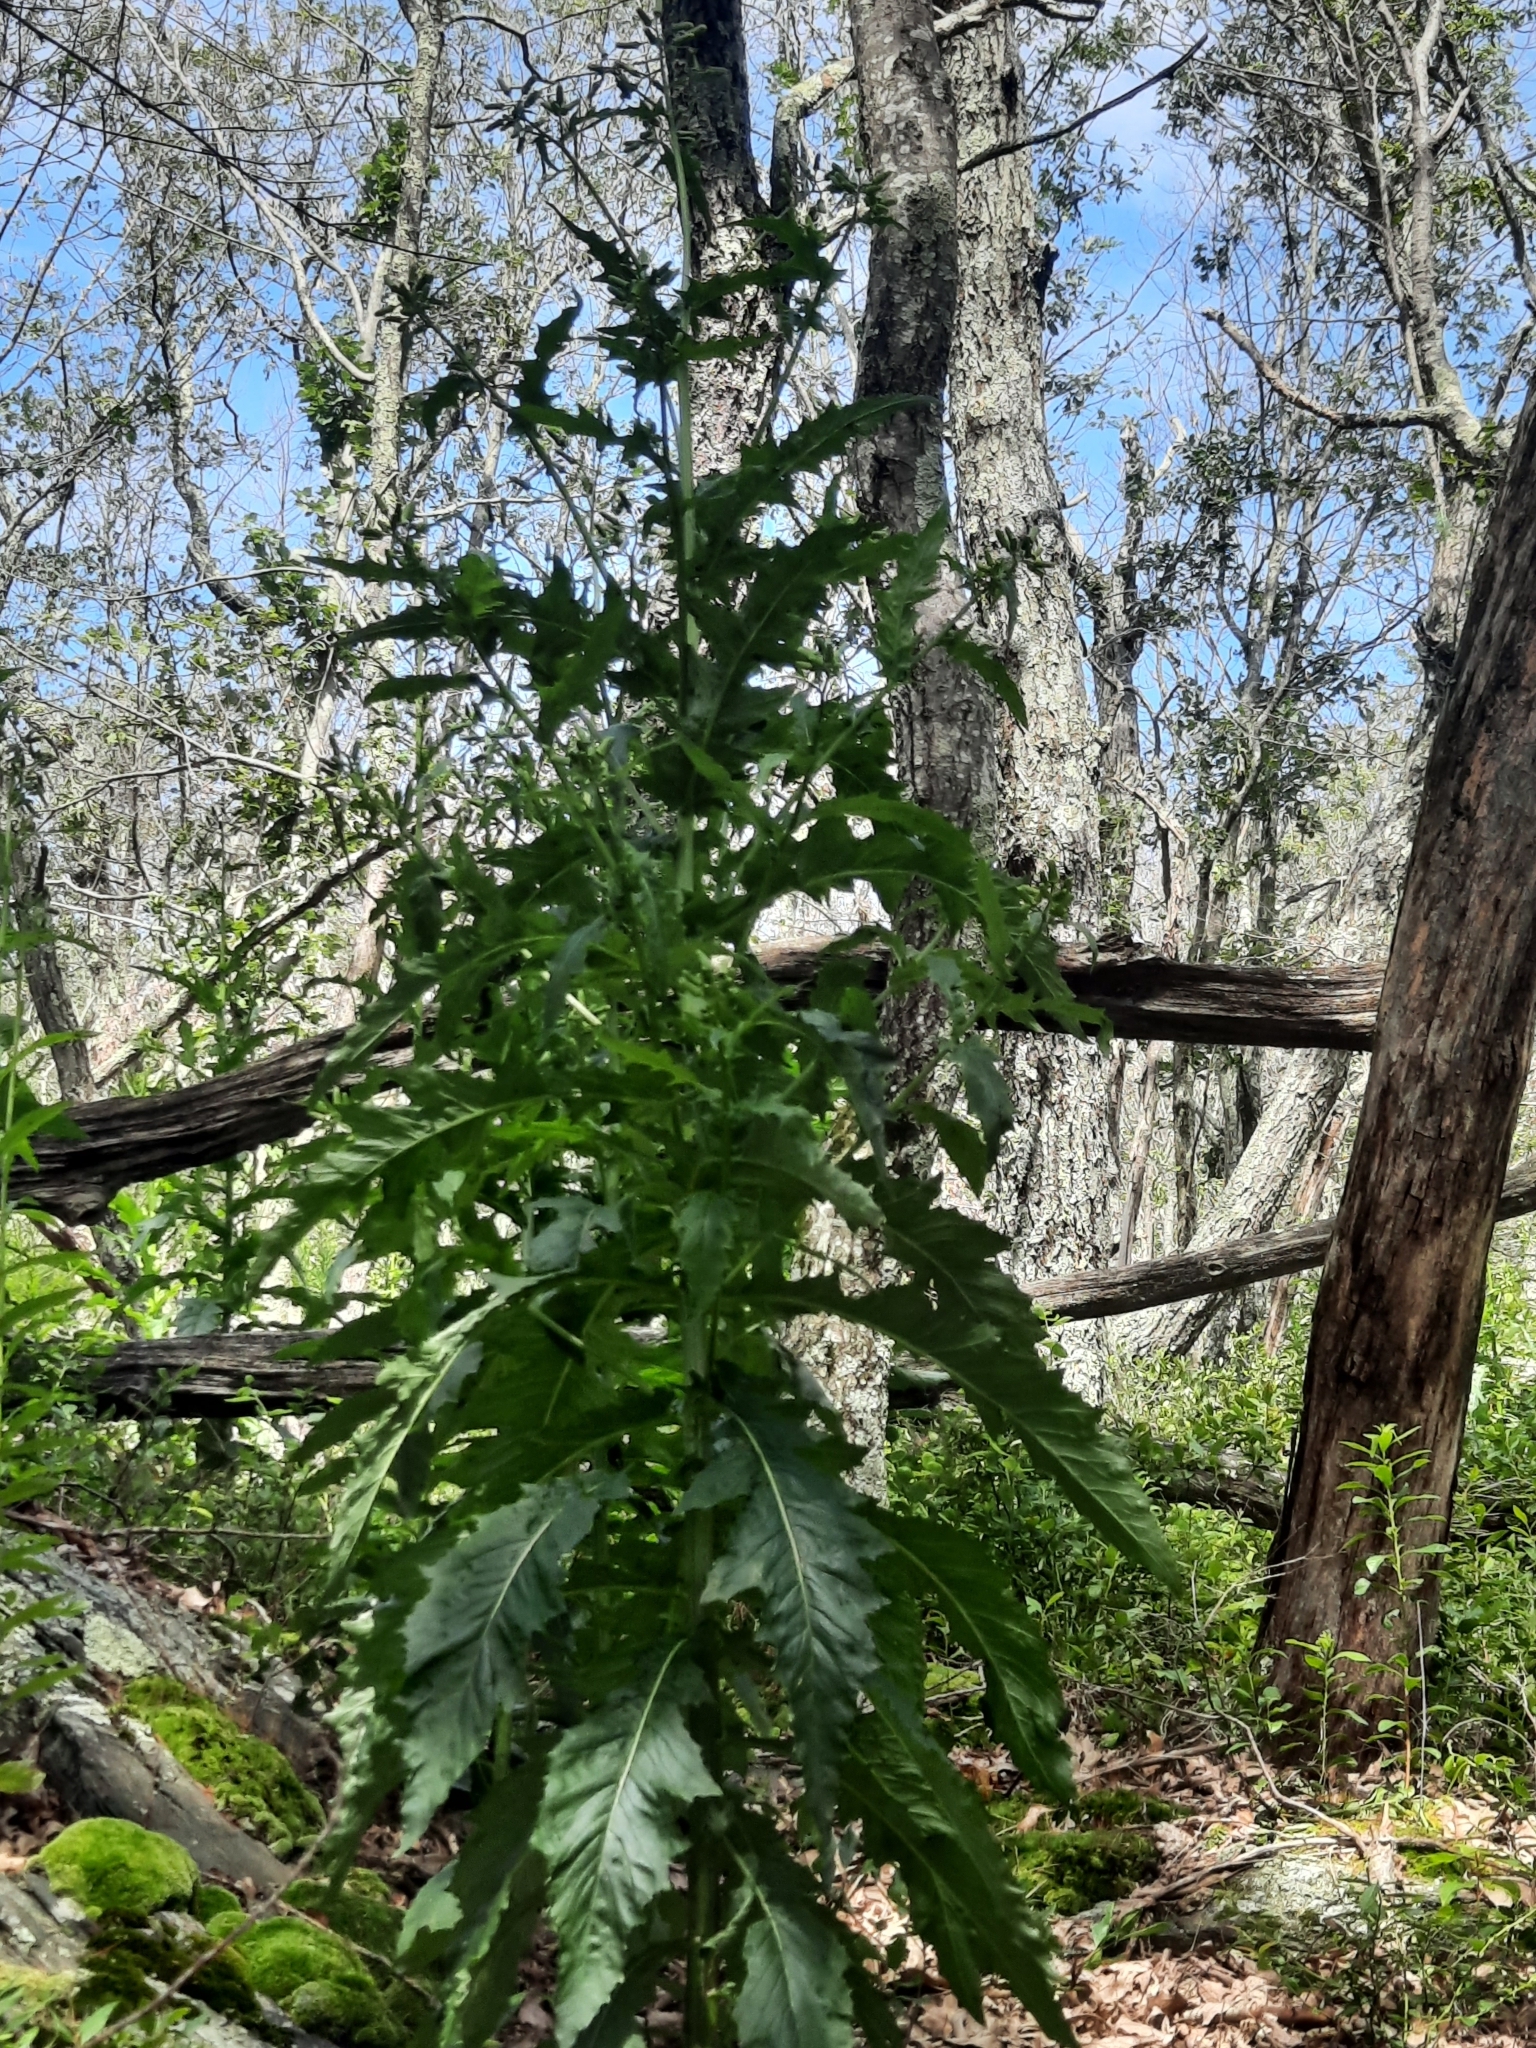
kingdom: Plantae
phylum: Tracheophyta
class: Magnoliopsida
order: Asterales
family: Asteraceae
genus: Erechtites
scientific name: Erechtites hieraciifolius
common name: American burnweed
